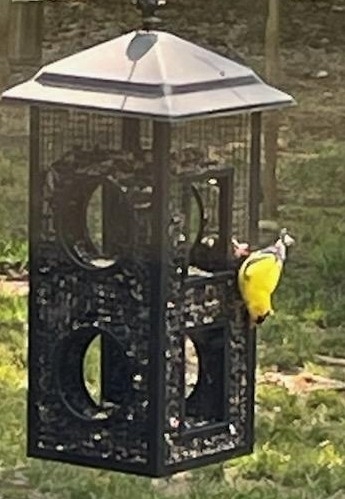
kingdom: Animalia
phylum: Chordata
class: Aves
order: Passeriformes
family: Fringillidae
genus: Spinus
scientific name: Spinus tristis
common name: American goldfinch
